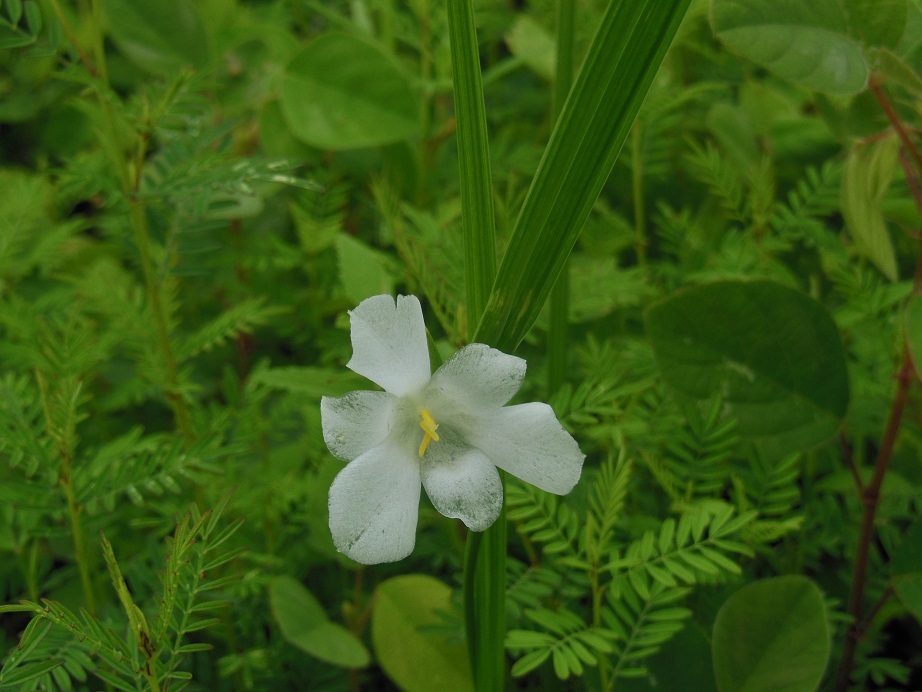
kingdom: Plantae
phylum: Tracheophyta
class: Liliopsida
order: Asparagales
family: Iridaceae
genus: Cipura
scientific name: Cipura campanulata
